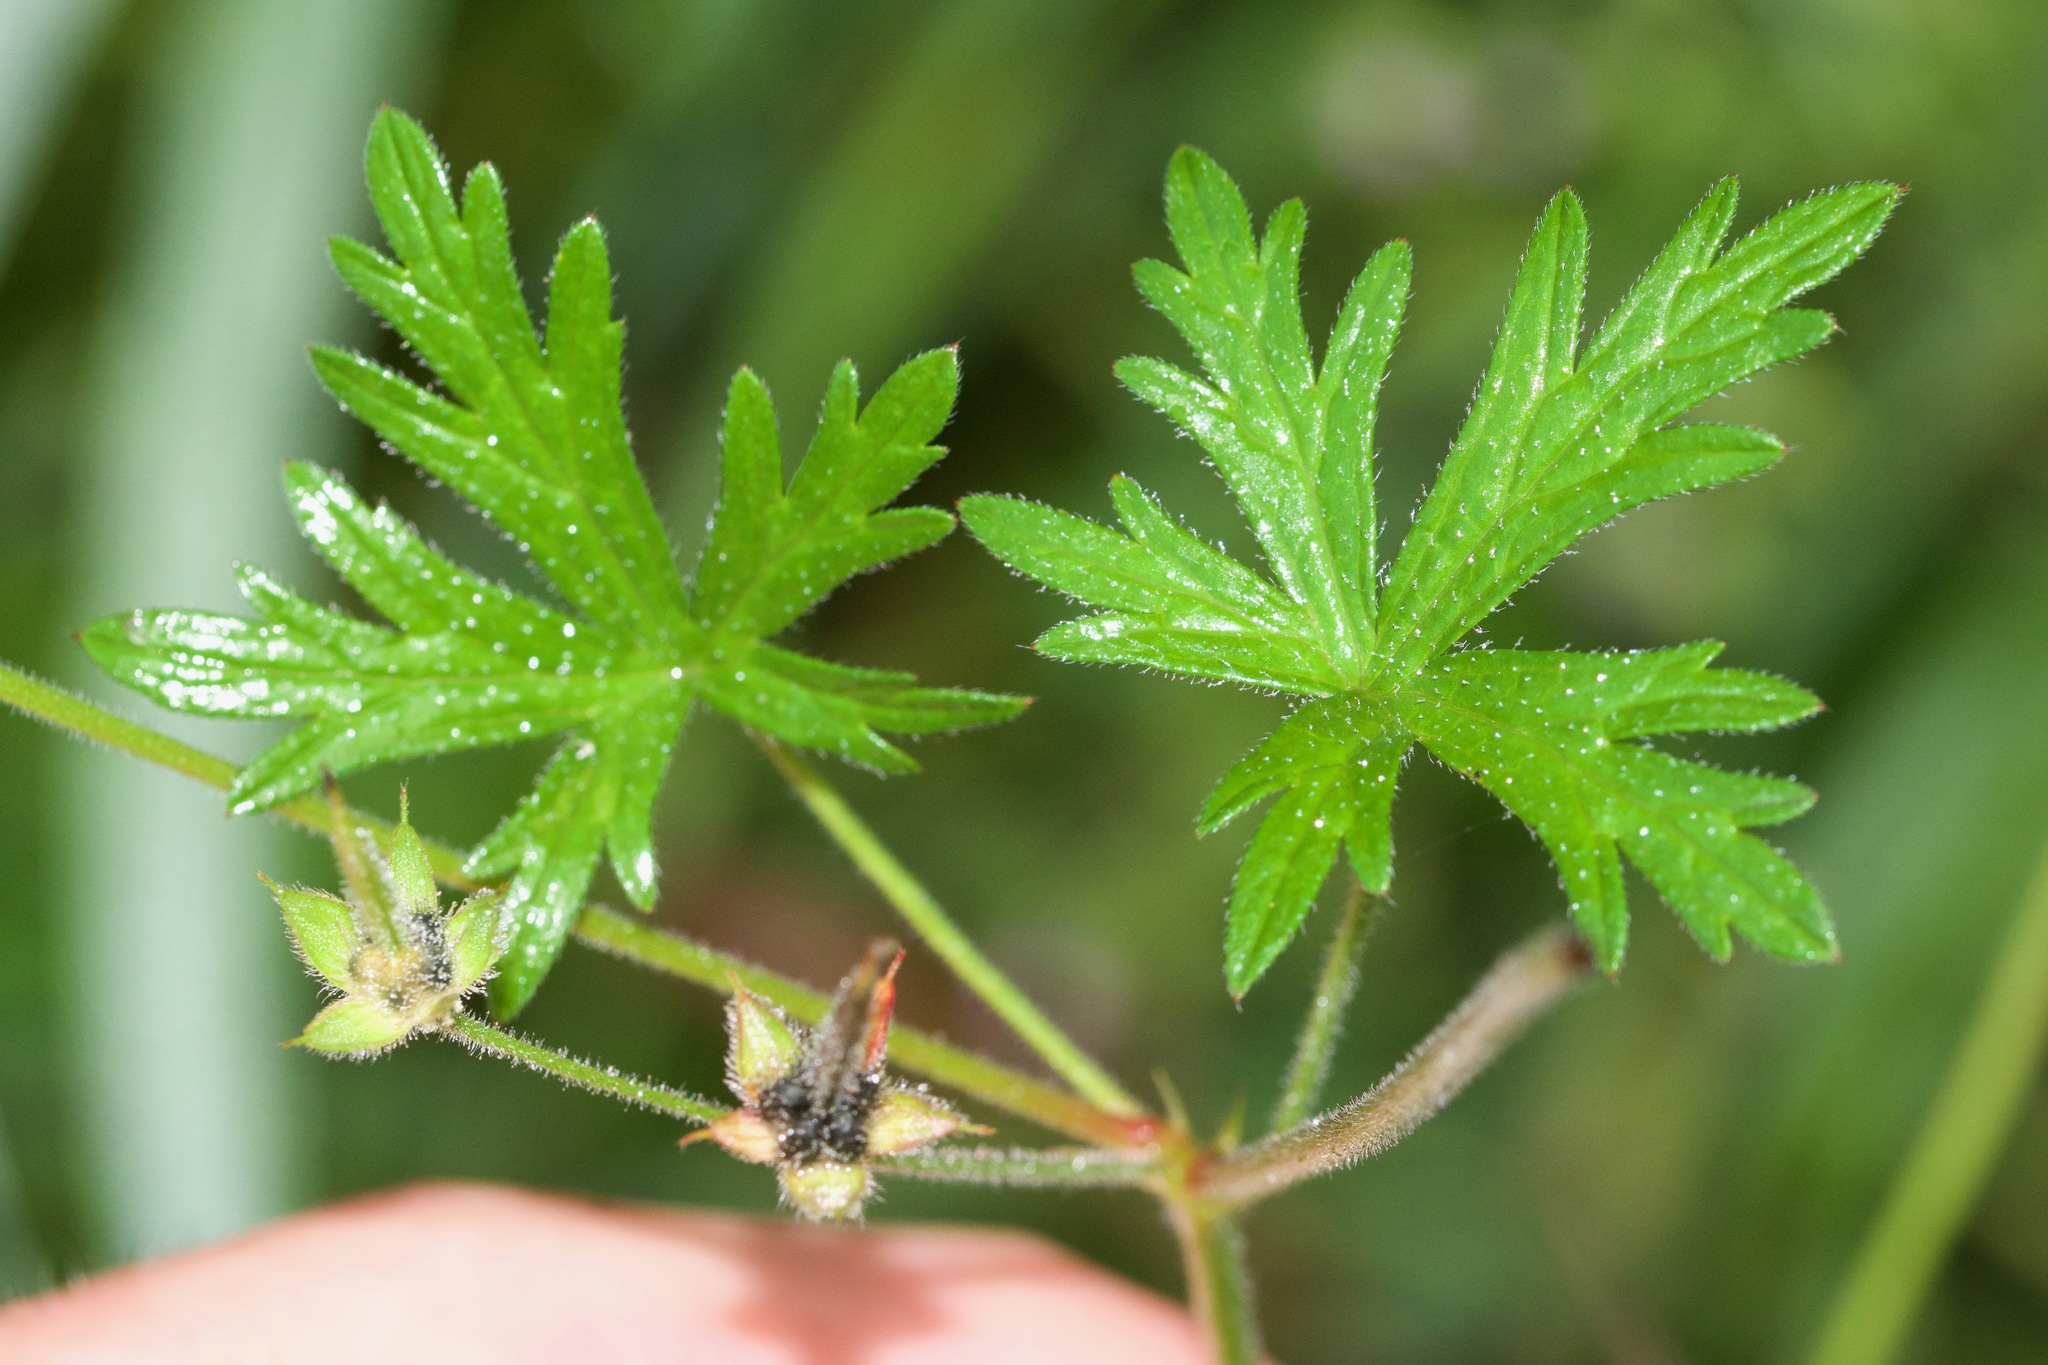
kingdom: Plantae
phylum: Tracheophyta
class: Magnoliopsida
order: Geraniales
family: Geraniaceae
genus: Geranium
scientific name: Geranium bicknellii
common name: Bicknell's cranesbill
